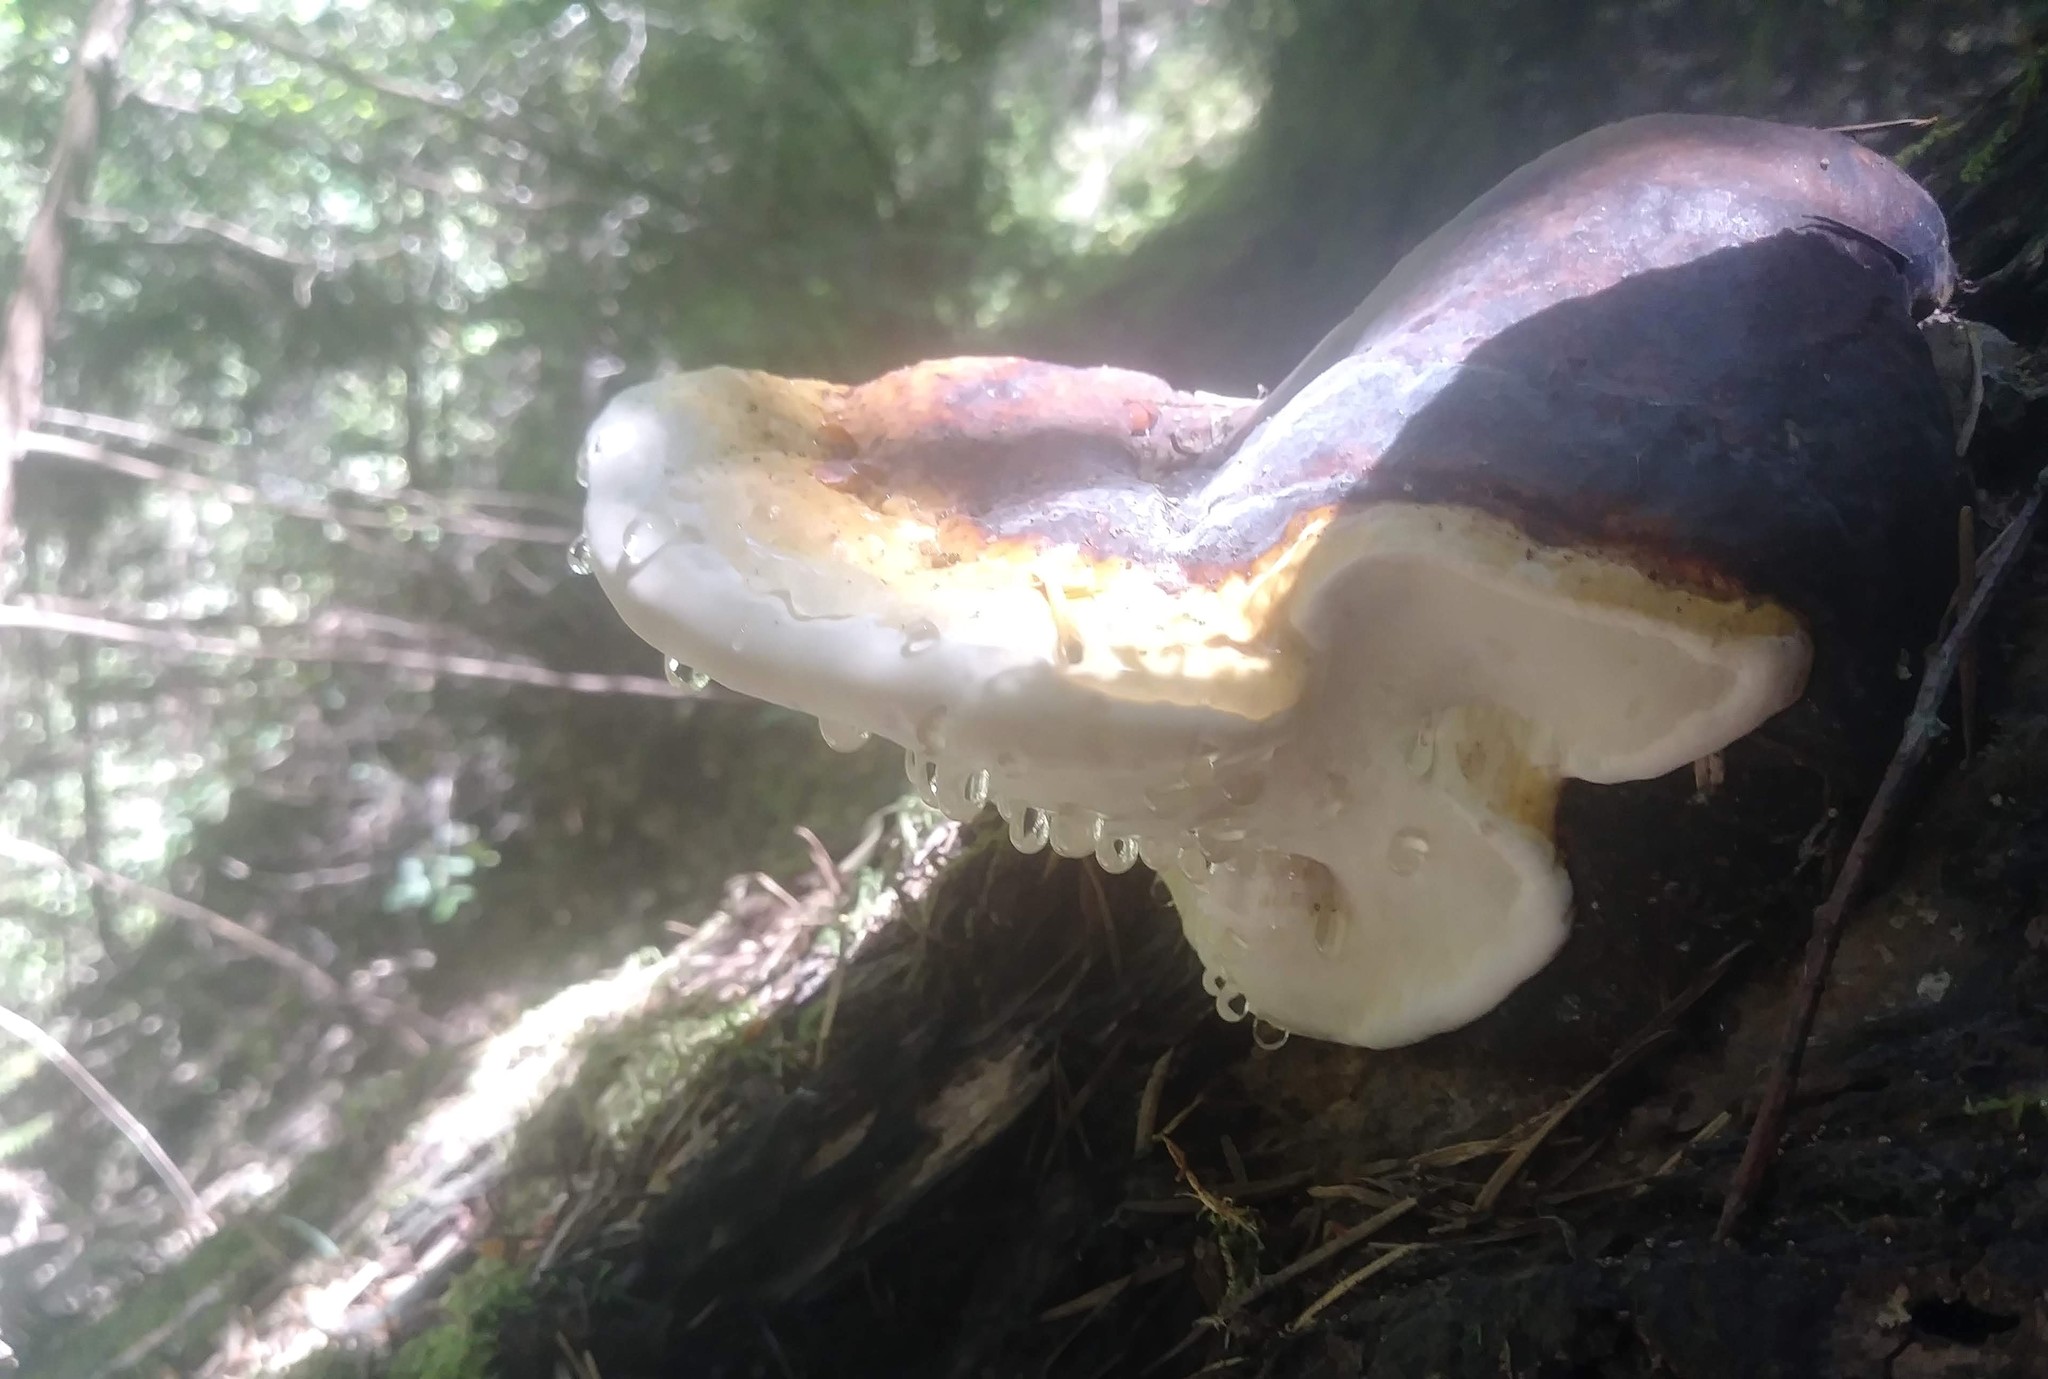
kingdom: Fungi
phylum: Basidiomycota
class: Agaricomycetes
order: Polyporales
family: Fomitopsidaceae
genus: Fomitopsis
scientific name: Fomitopsis mounceae
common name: Northern red belt
